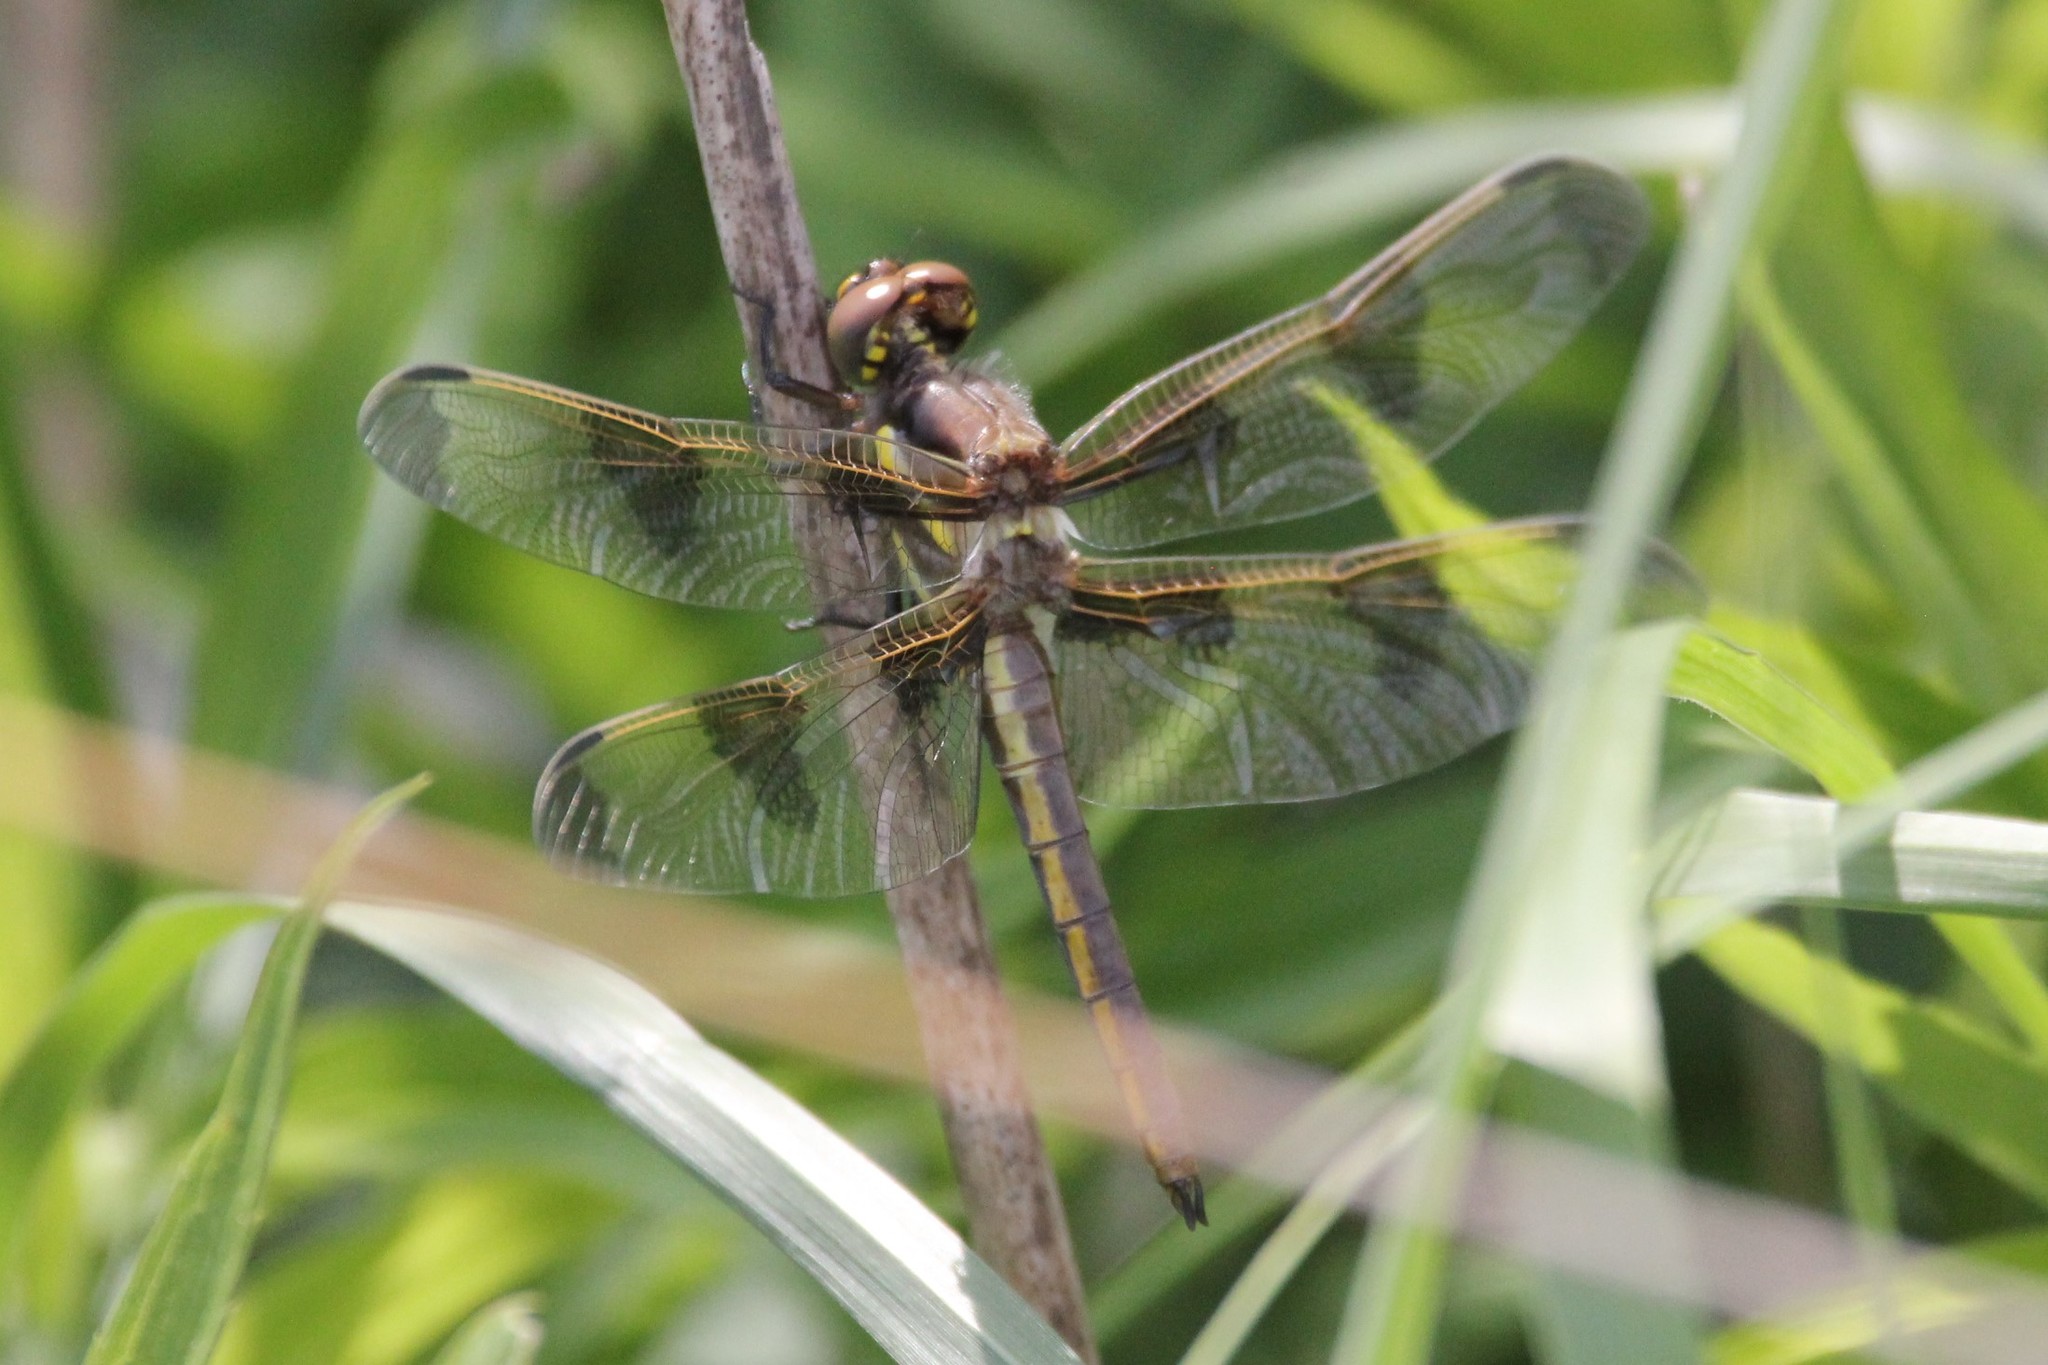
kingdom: Animalia
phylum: Arthropoda
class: Insecta
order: Odonata
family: Libellulidae
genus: Libellula
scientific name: Libellula pulchella
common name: Twelve-spotted skimmer
